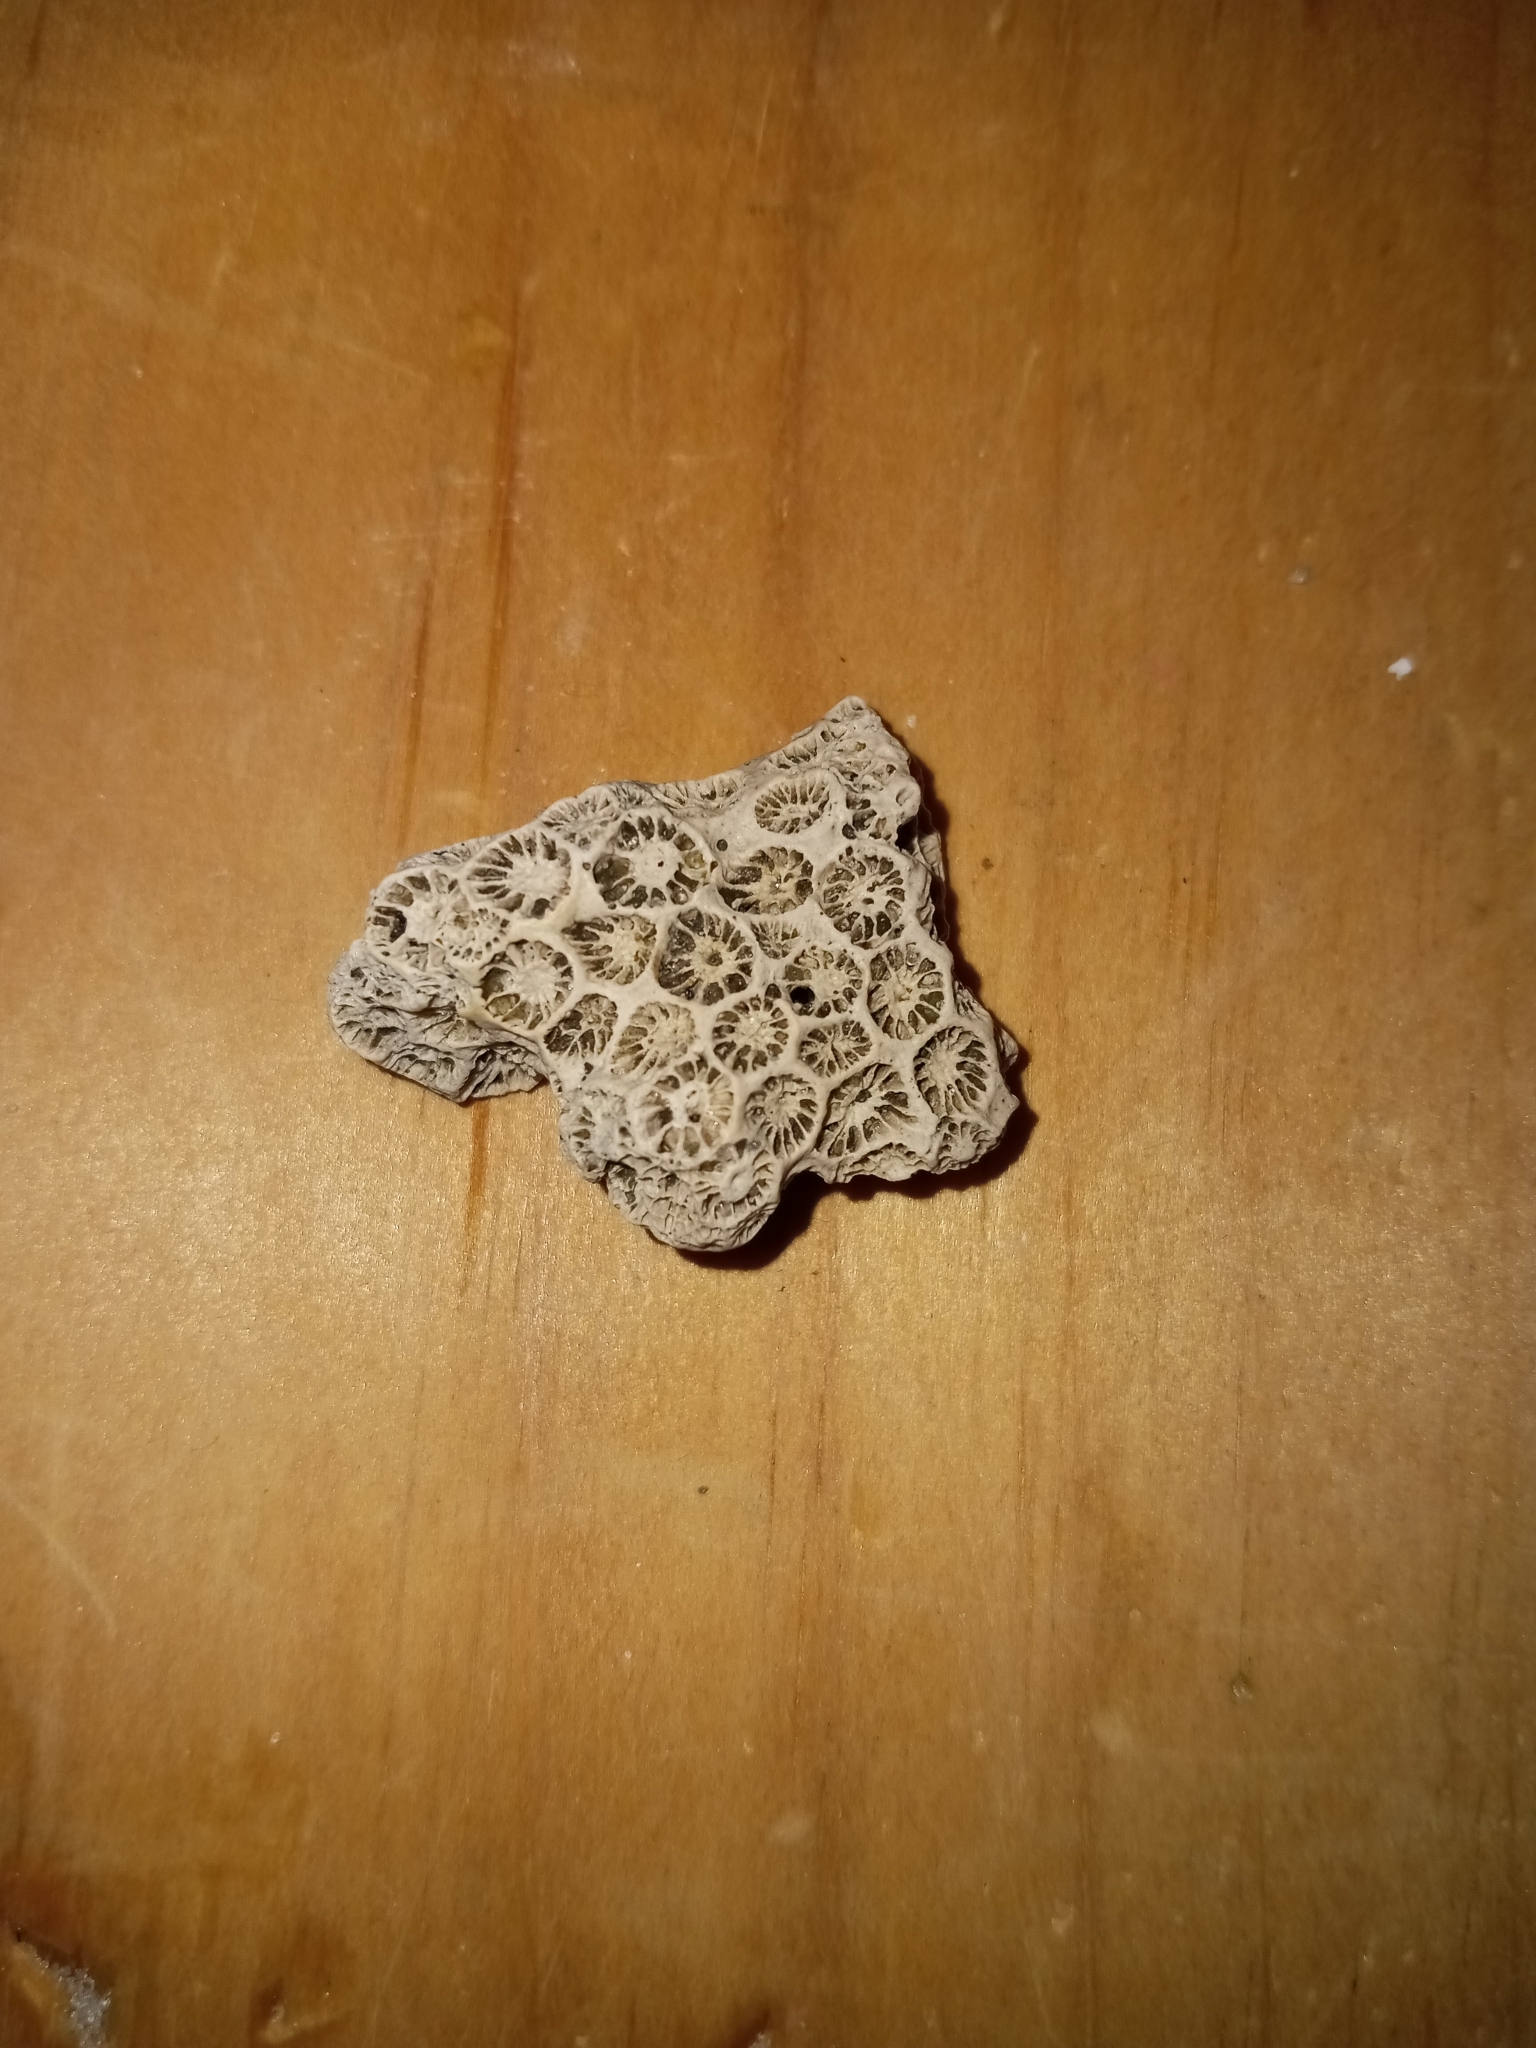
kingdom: Animalia
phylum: Cnidaria
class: Anthozoa
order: Scleractinia
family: Astrangiidae
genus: Astrangia
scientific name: Astrangia poculata
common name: Northern star coral
